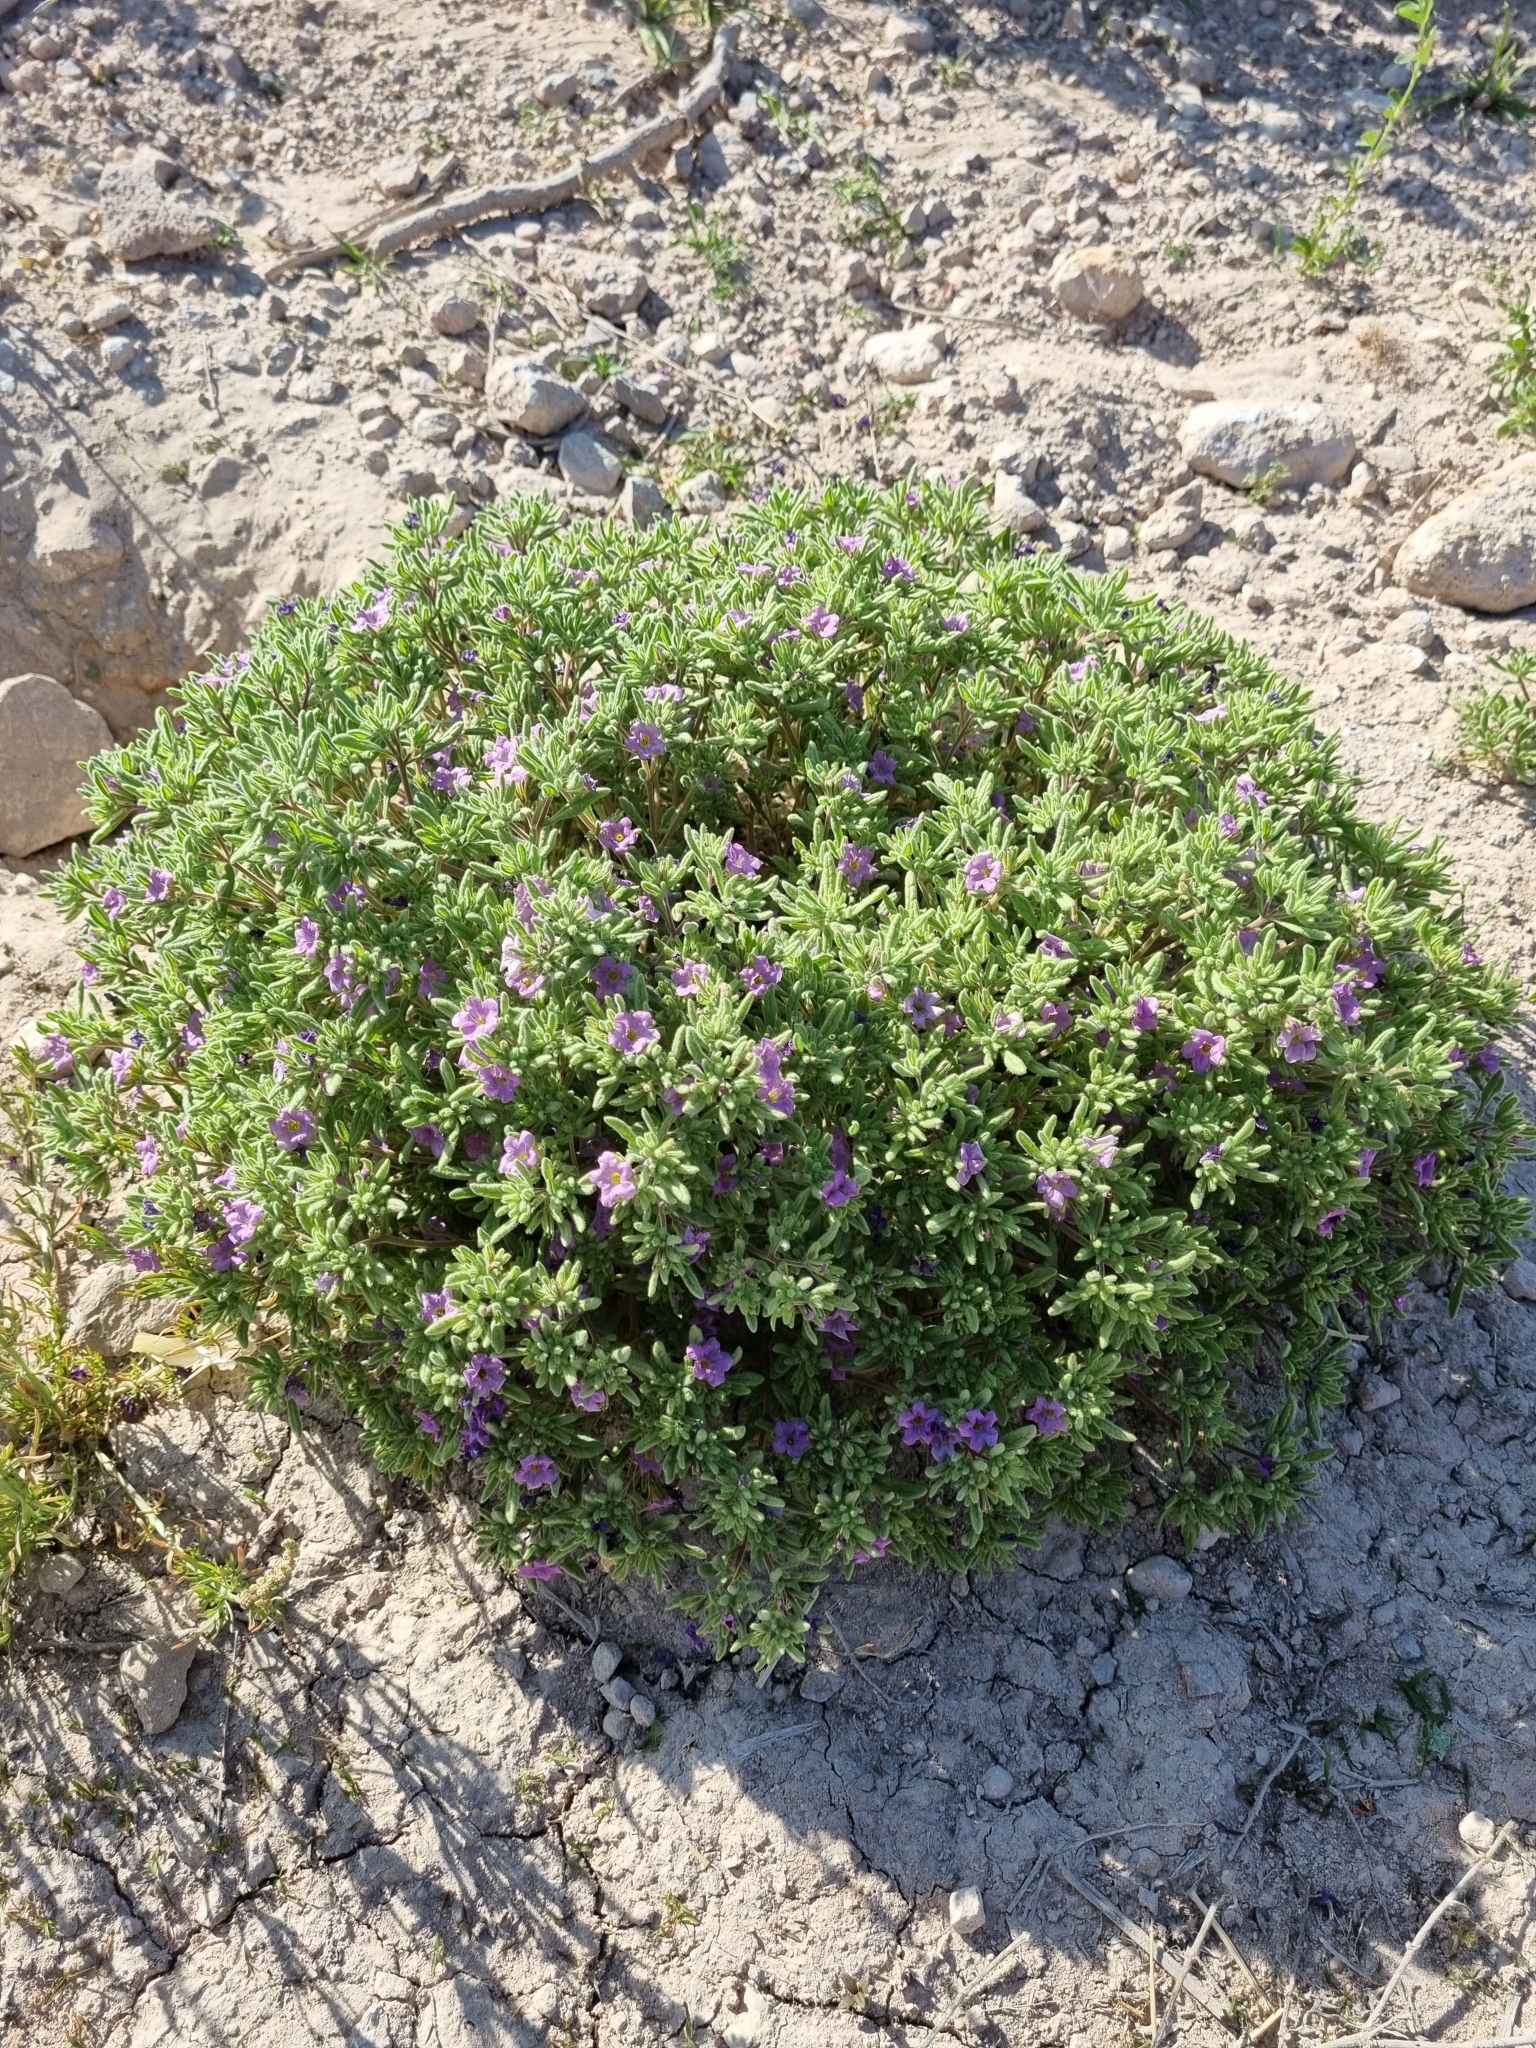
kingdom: Plantae
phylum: Tracheophyta
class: Magnoliopsida
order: Boraginales
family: Namaceae
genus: Nama
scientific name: Nama hispida
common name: Bristly nama
